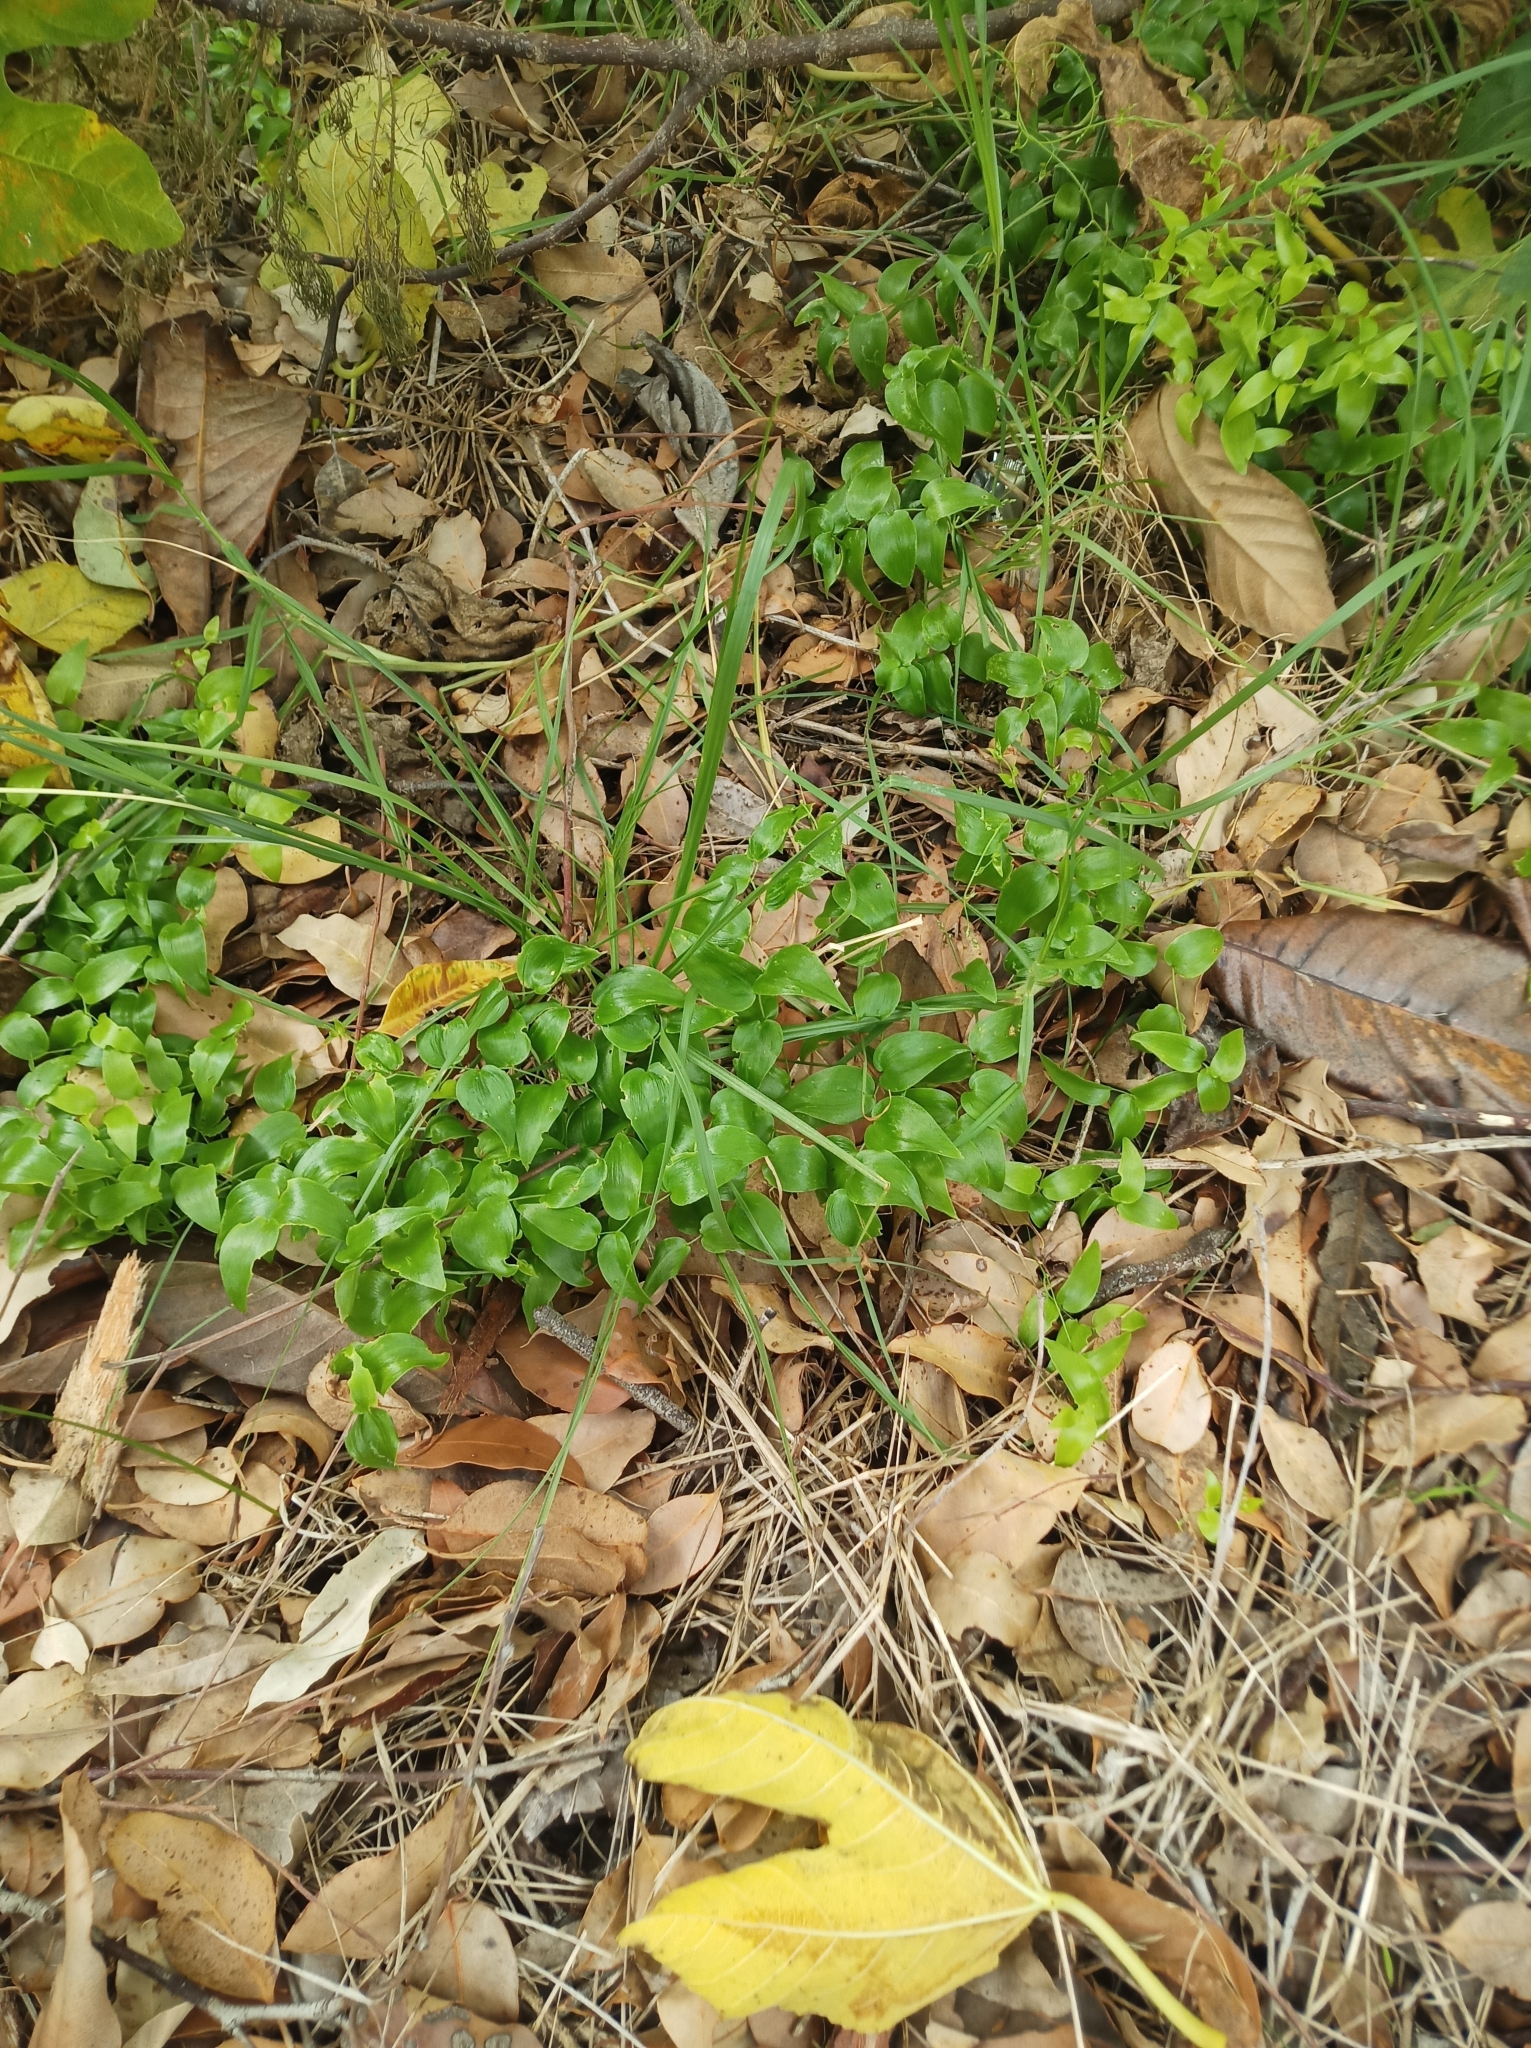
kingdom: Plantae
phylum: Tracheophyta
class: Liliopsida
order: Asparagales
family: Asparagaceae
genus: Asparagus
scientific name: Asparagus asparagoides
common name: African asparagus fern
